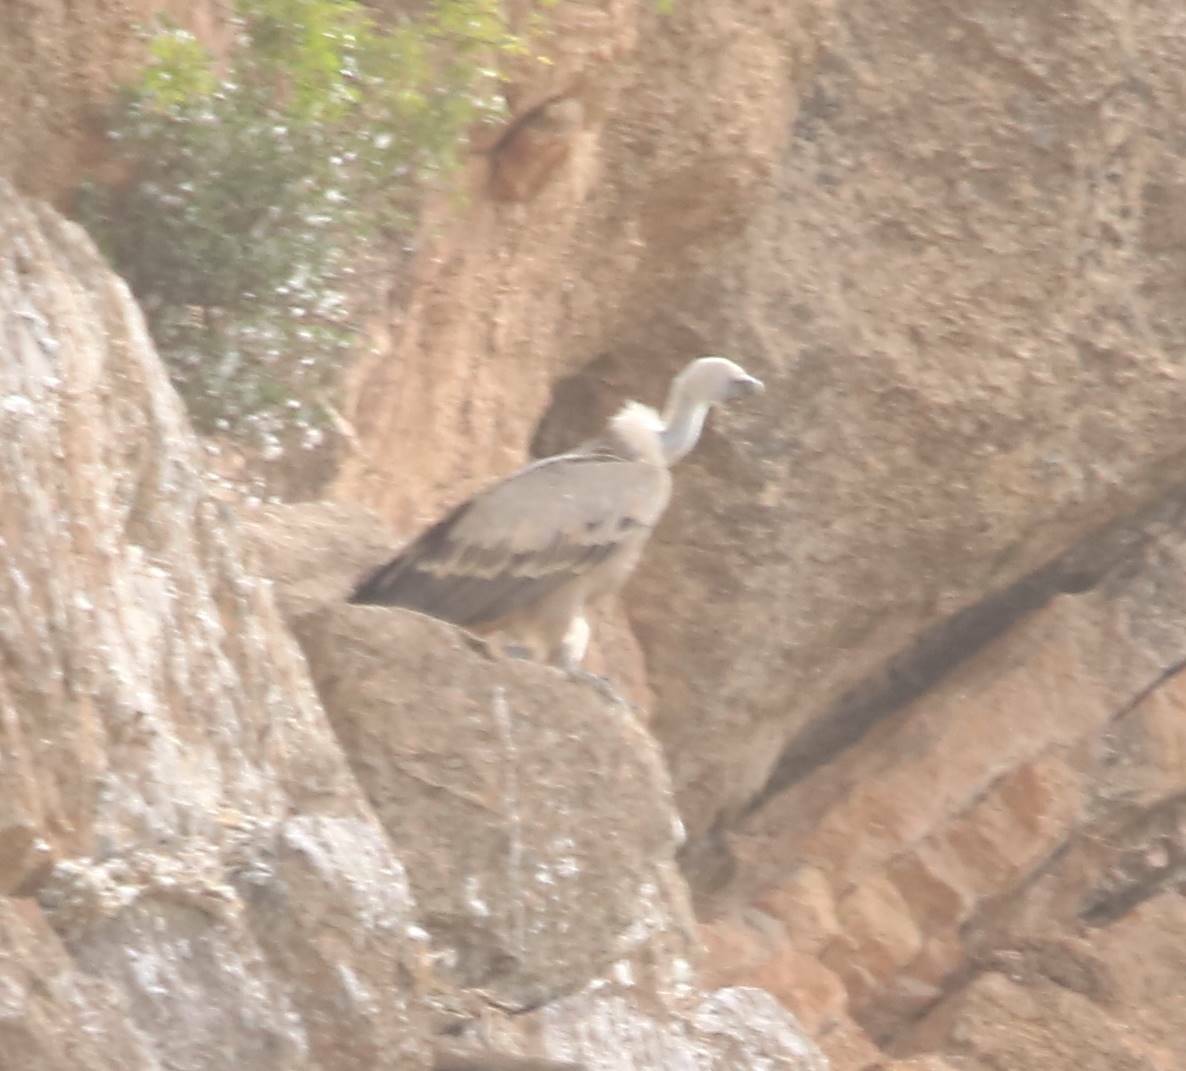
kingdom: Animalia
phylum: Chordata
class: Aves
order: Accipitriformes
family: Accipitridae
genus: Gyps
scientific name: Gyps fulvus
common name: Griffon vulture
